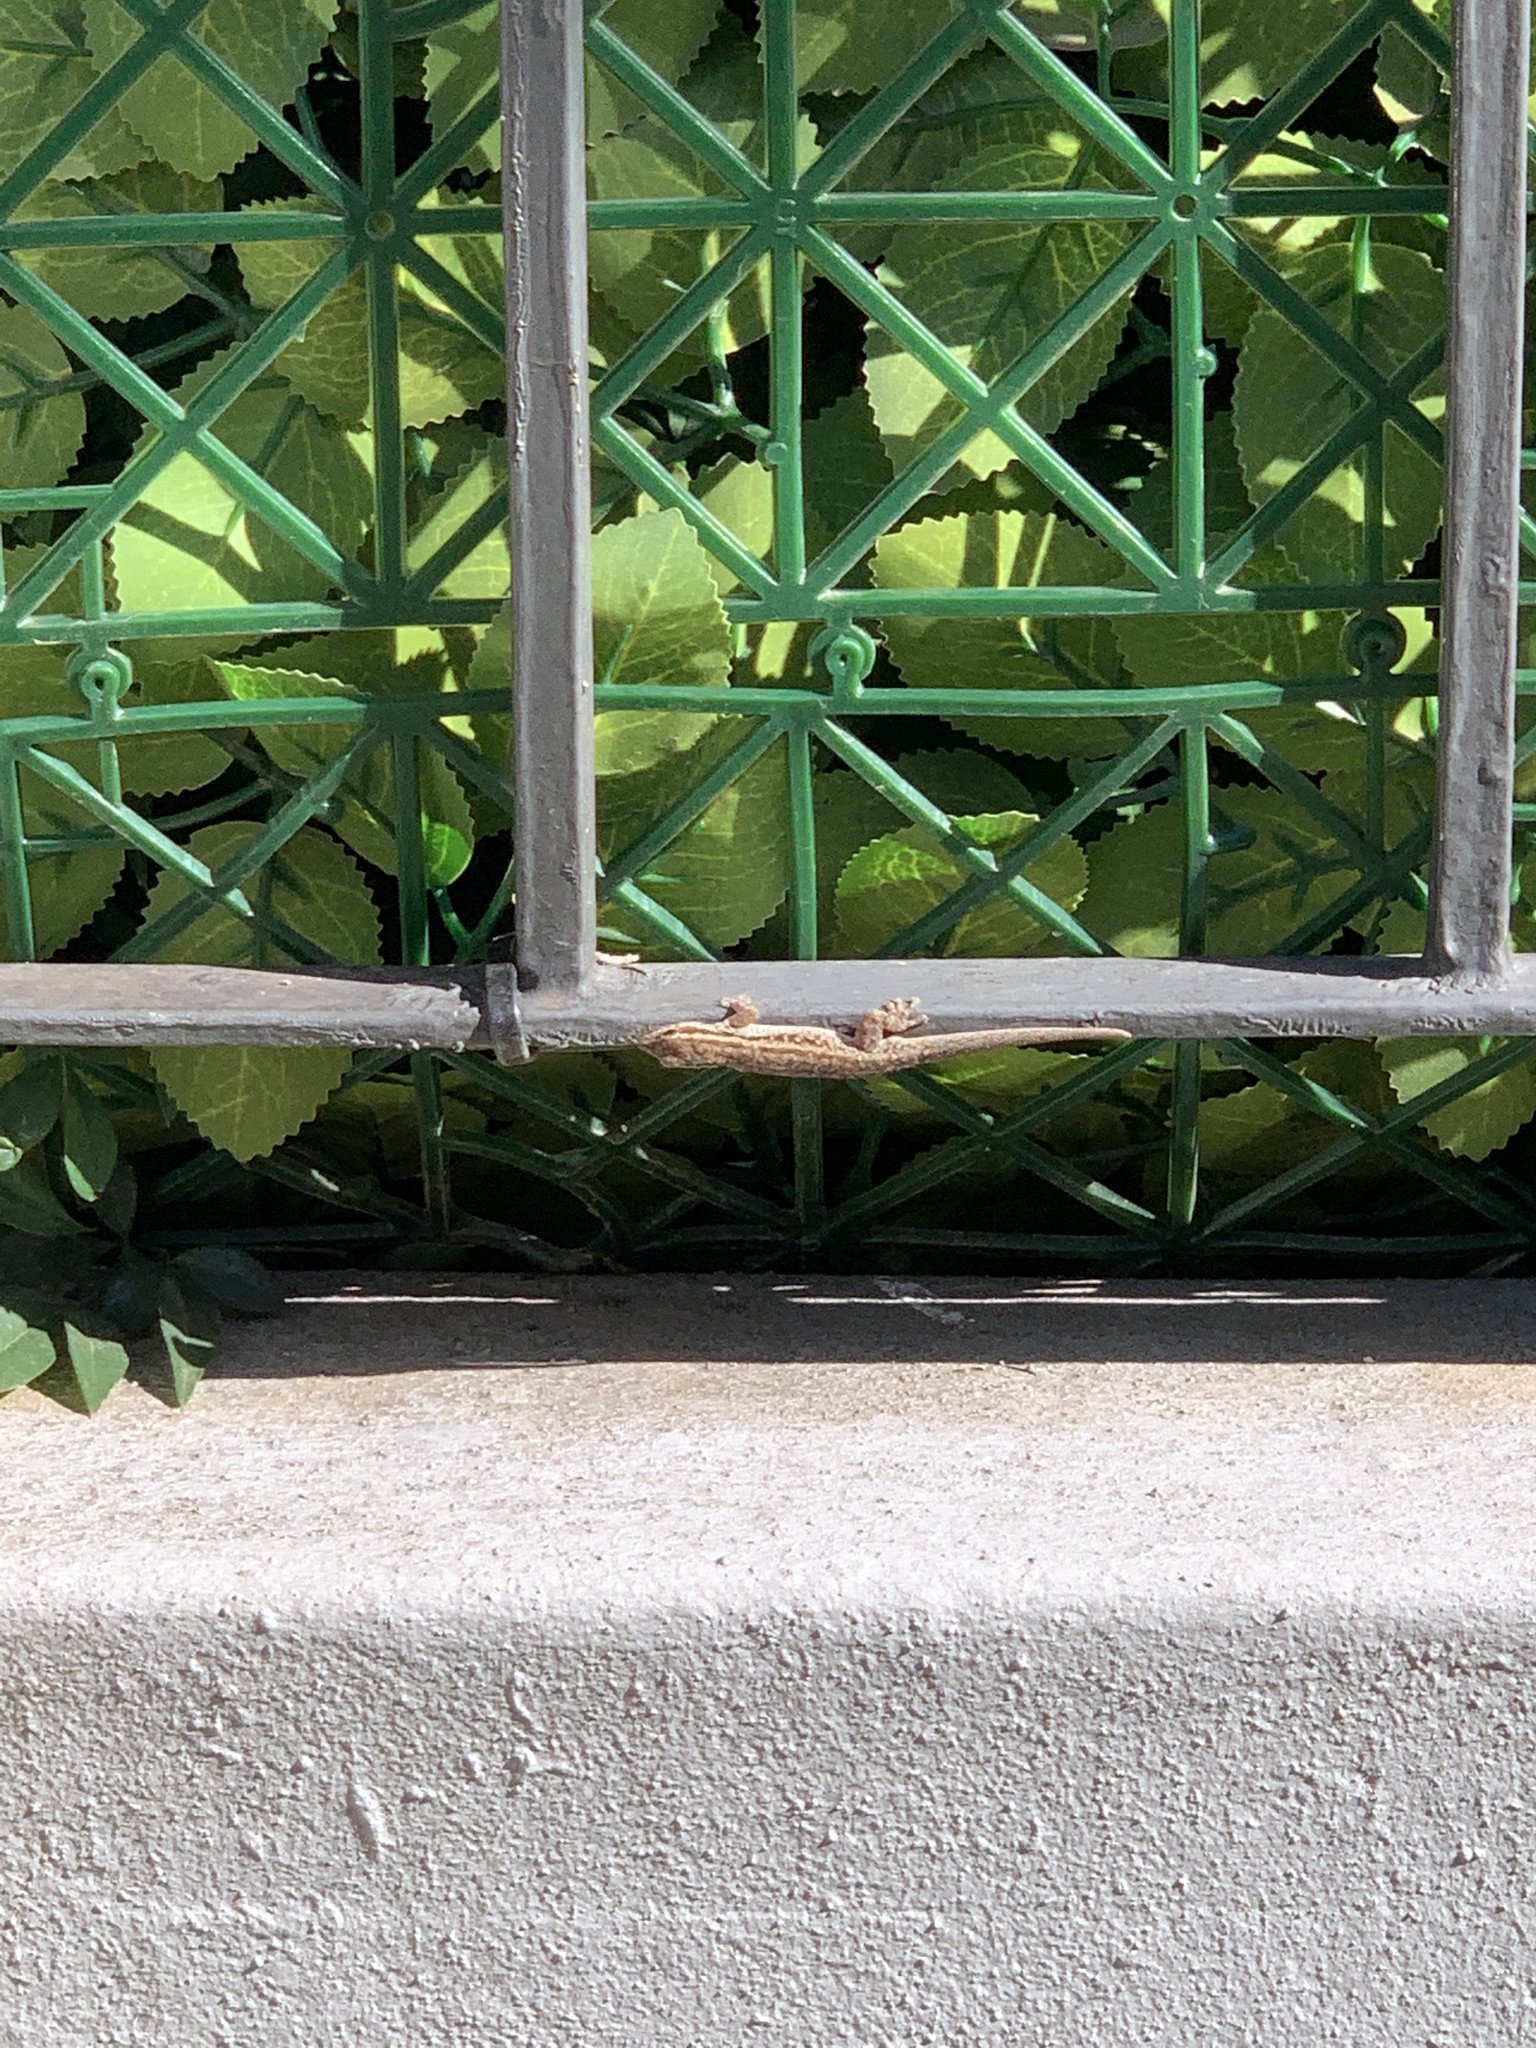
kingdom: Animalia
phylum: Chordata
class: Squamata
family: Gekkonidae
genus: Lygodactylus
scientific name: Lygodactylus capensis
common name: Cape dwarf gecko
